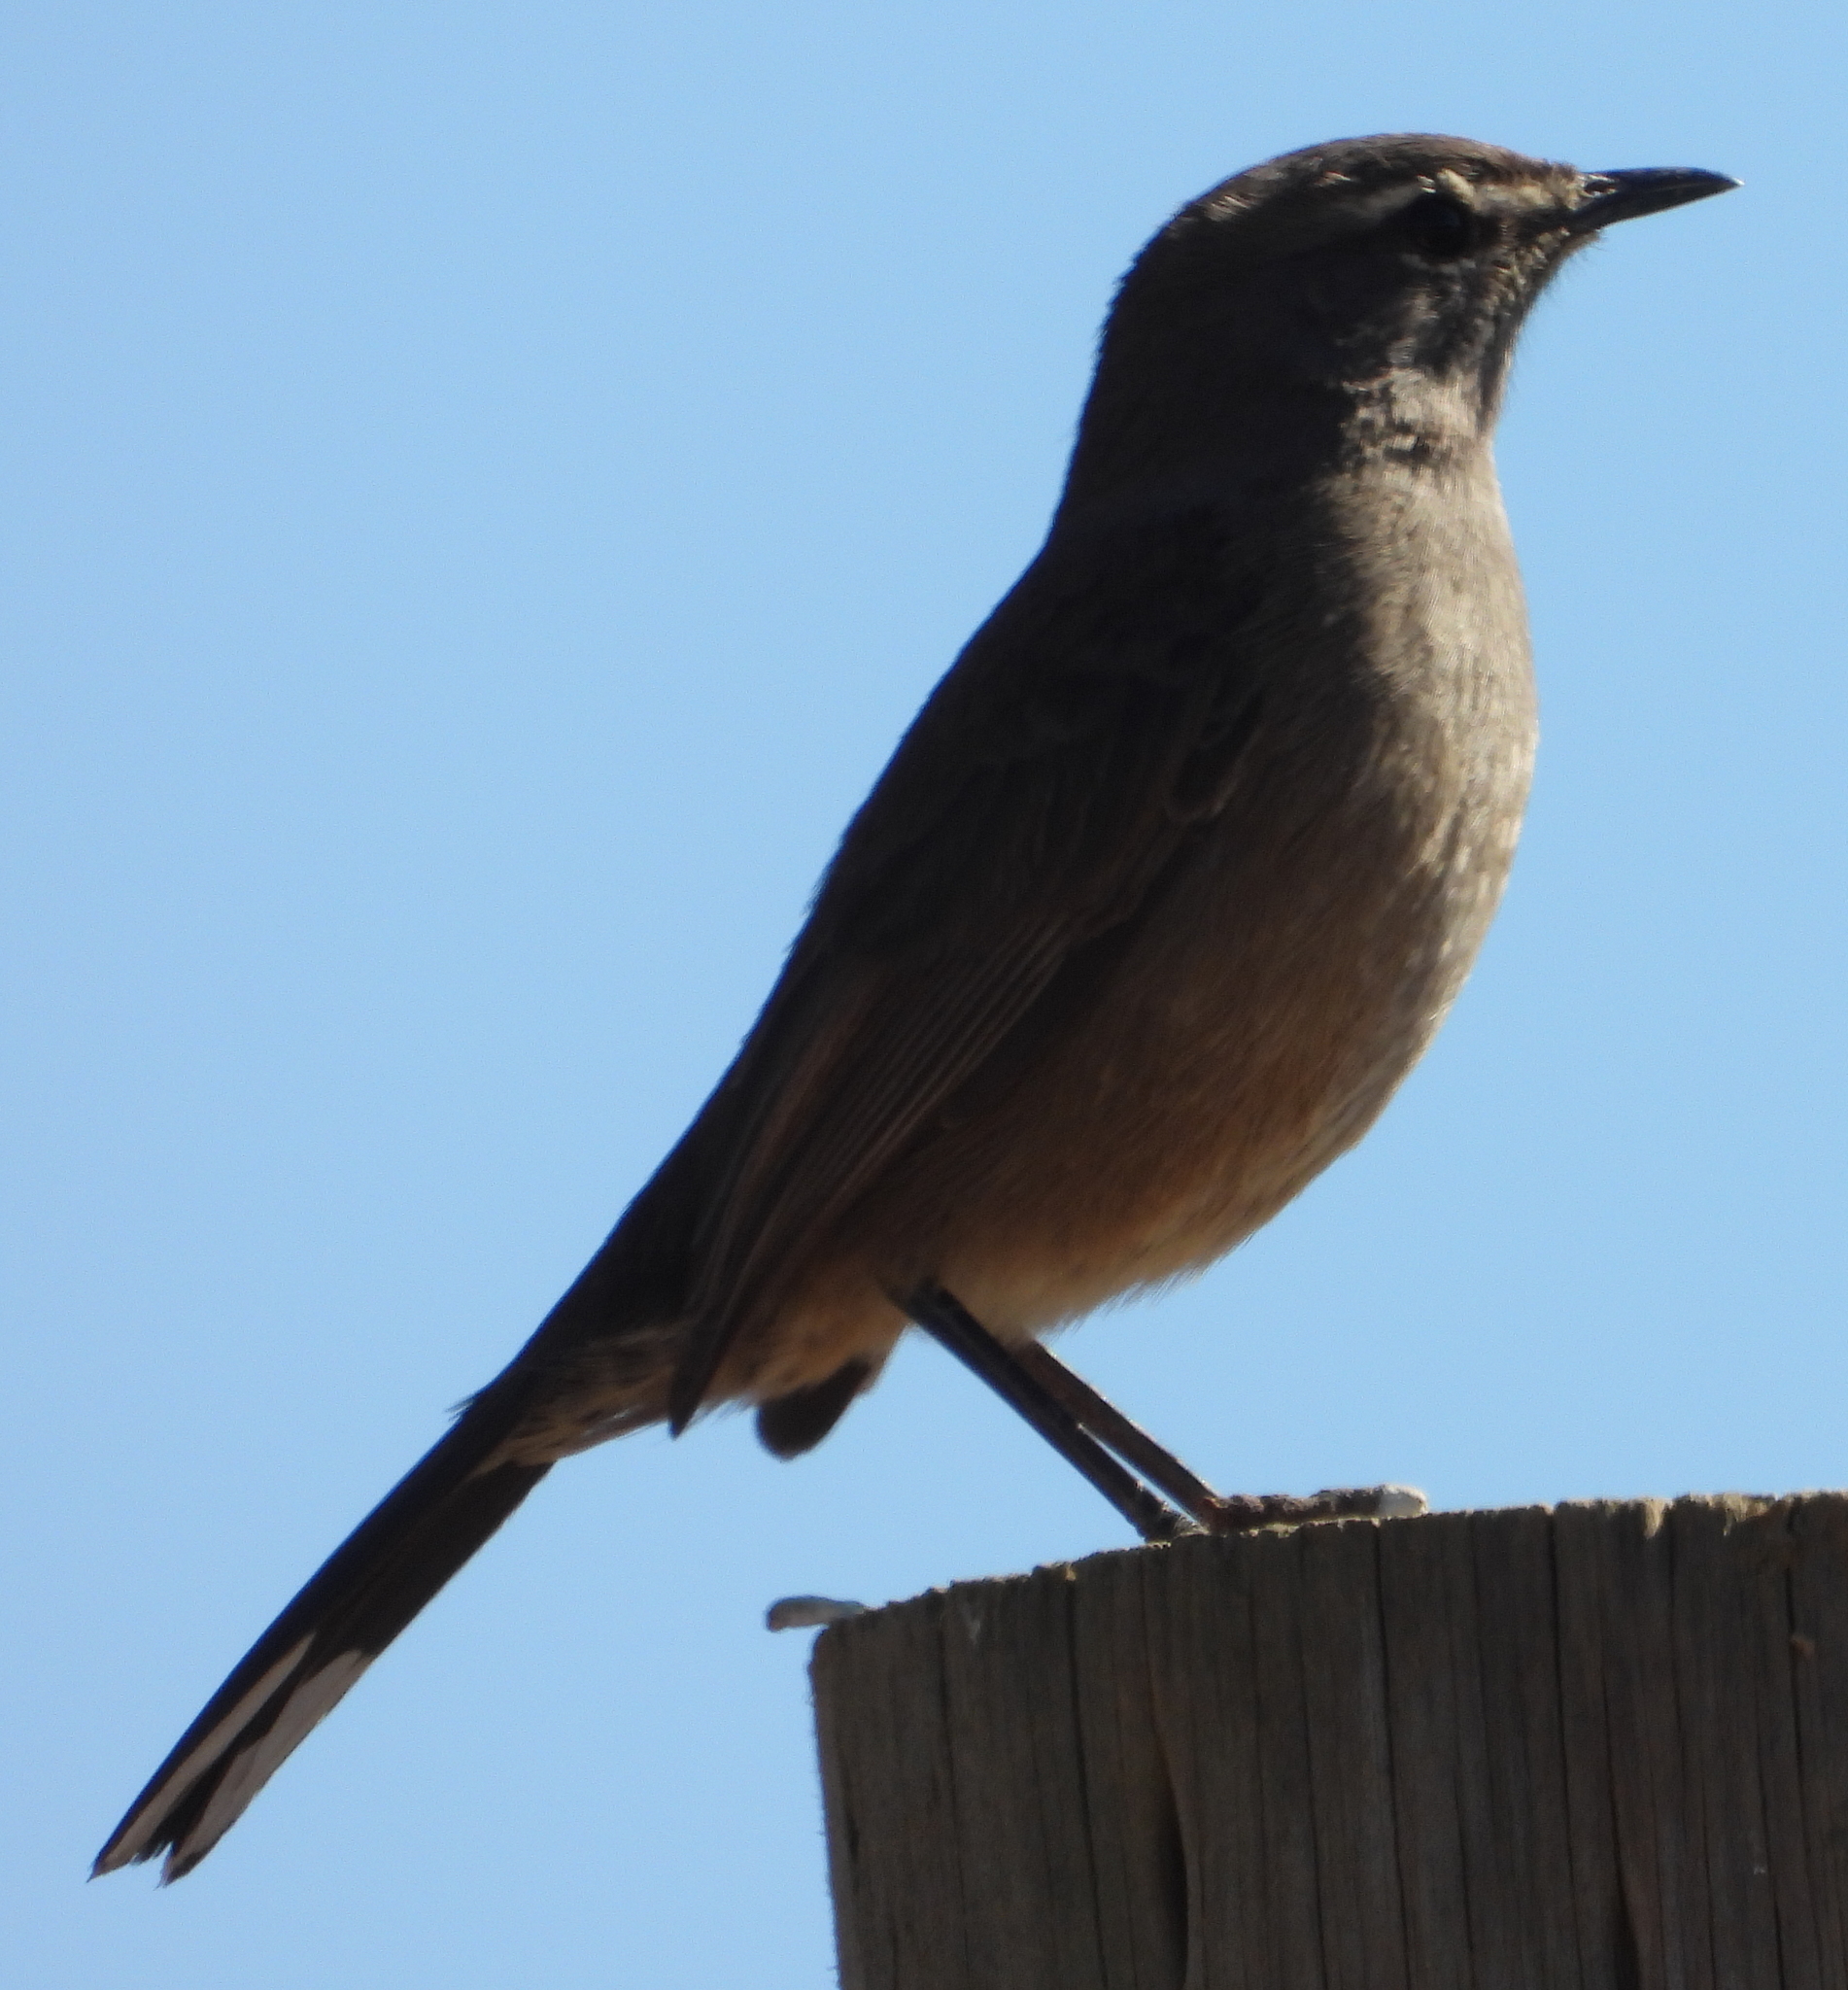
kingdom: Animalia
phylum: Chordata
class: Aves
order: Passeriformes
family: Muscicapidae
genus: Erythropygia
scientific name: Erythropygia coryphoeus
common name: Karoo scrub robin
